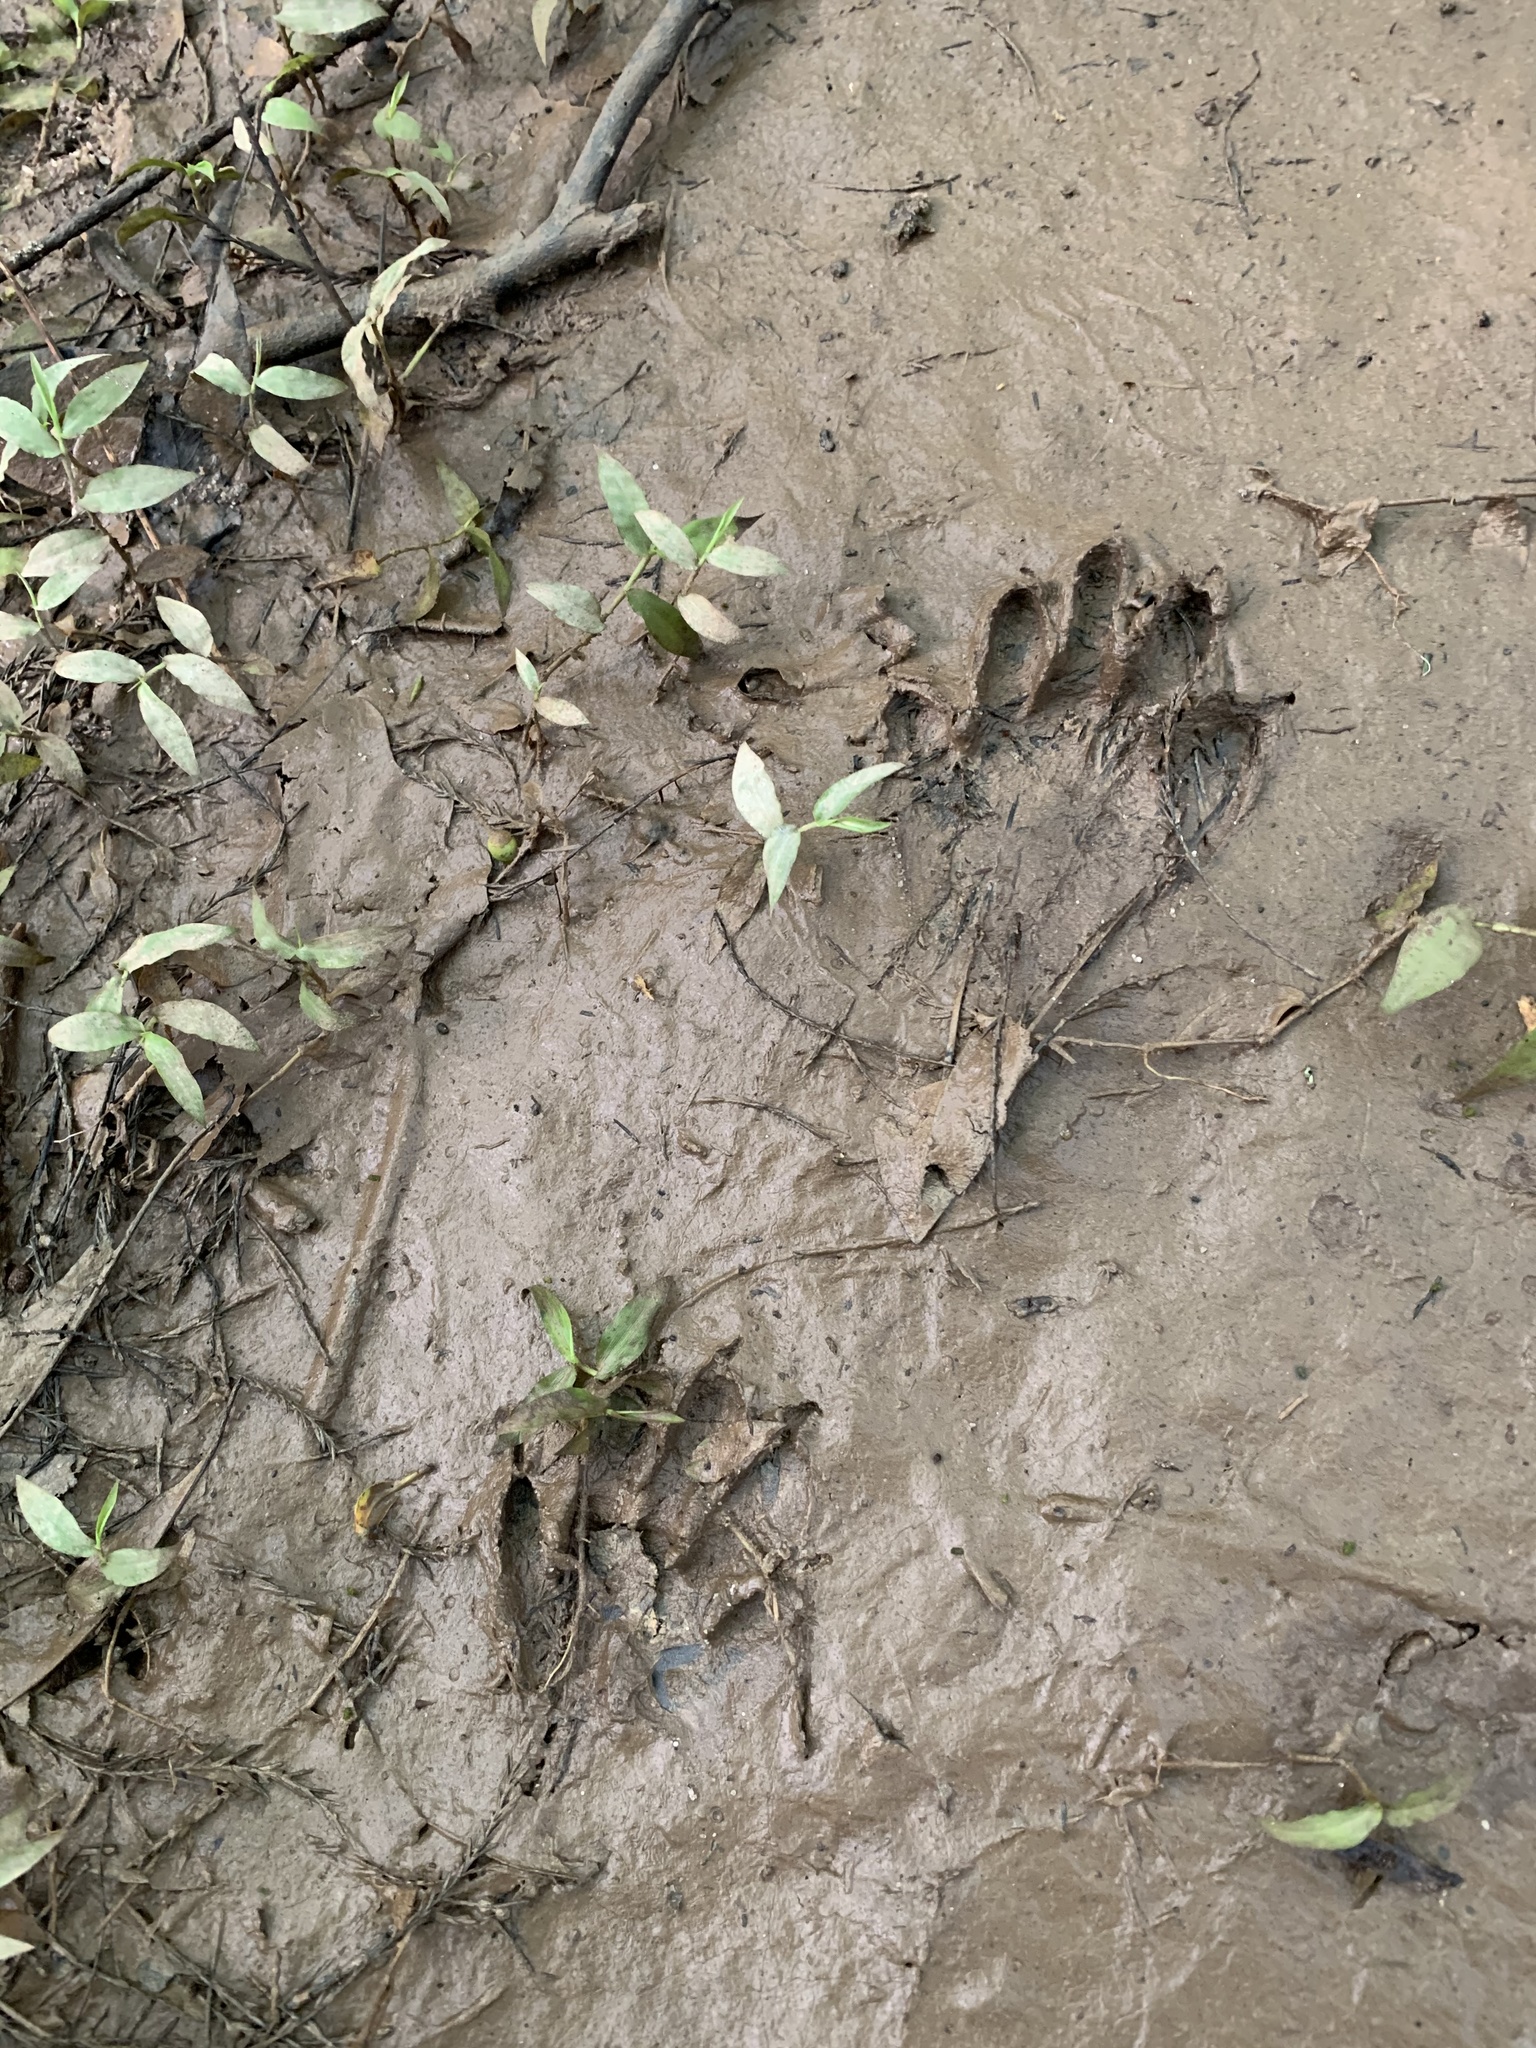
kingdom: Animalia
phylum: Chordata
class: Mammalia
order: Carnivora
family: Procyonidae
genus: Procyon
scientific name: Procyon lotor
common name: Raccoon
